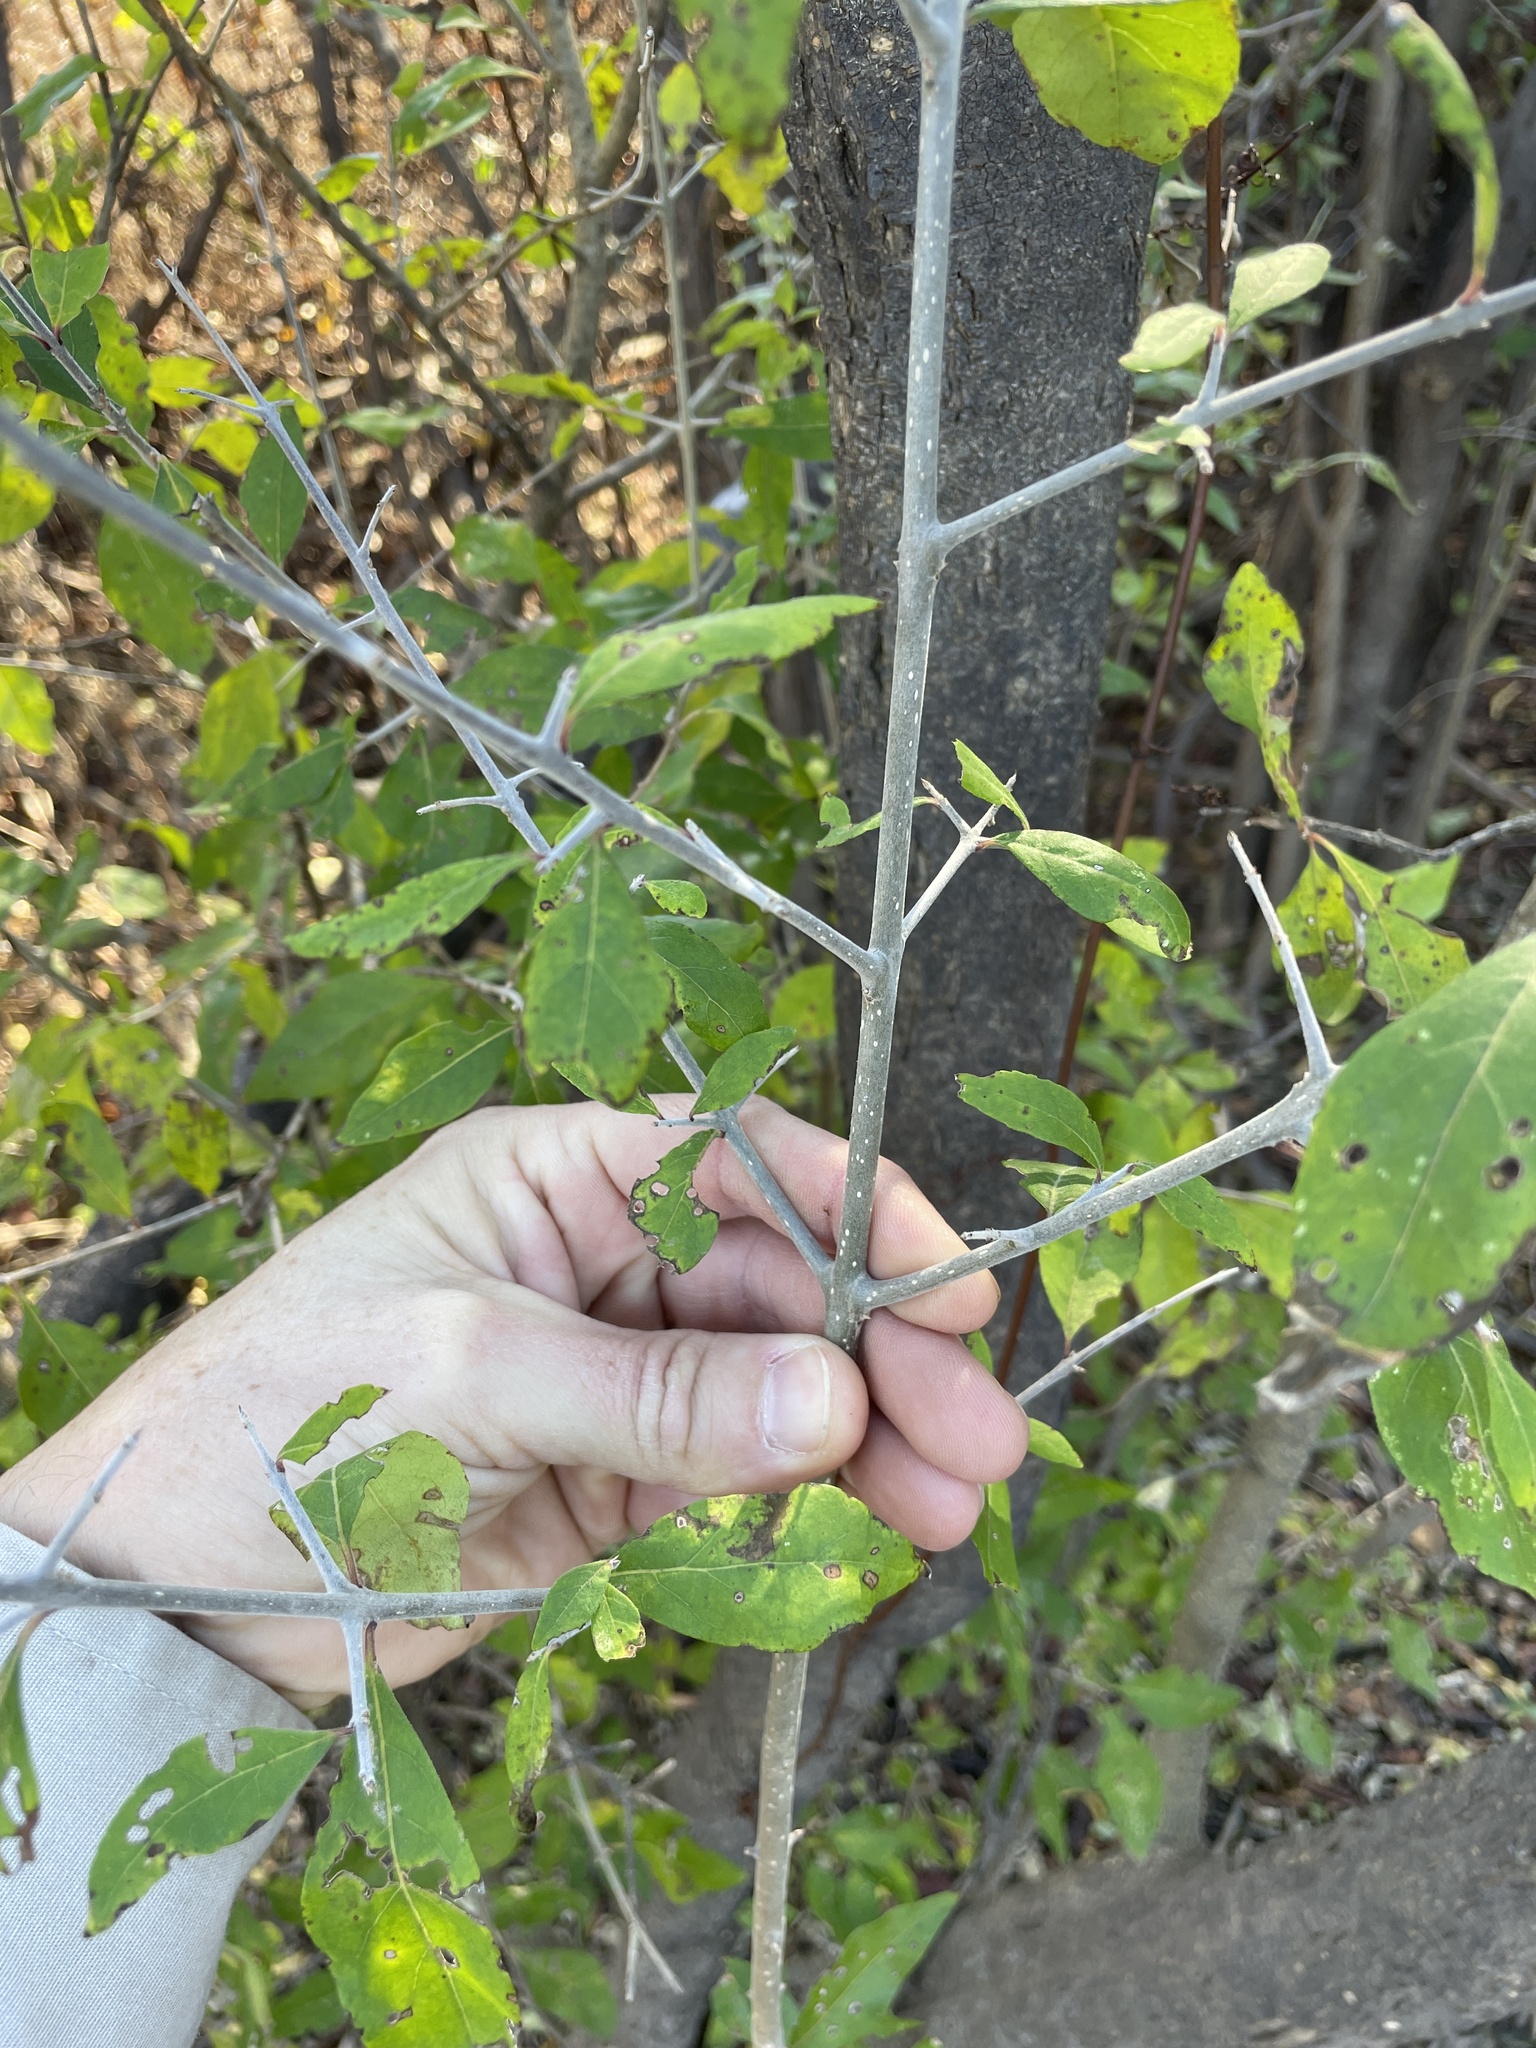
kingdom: Plantae
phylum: Tracheophyta
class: Magnoliopsida
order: Lamiales
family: Oleaceae
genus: Forestiera
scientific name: Forestiera acuminata
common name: Swamp-privet
